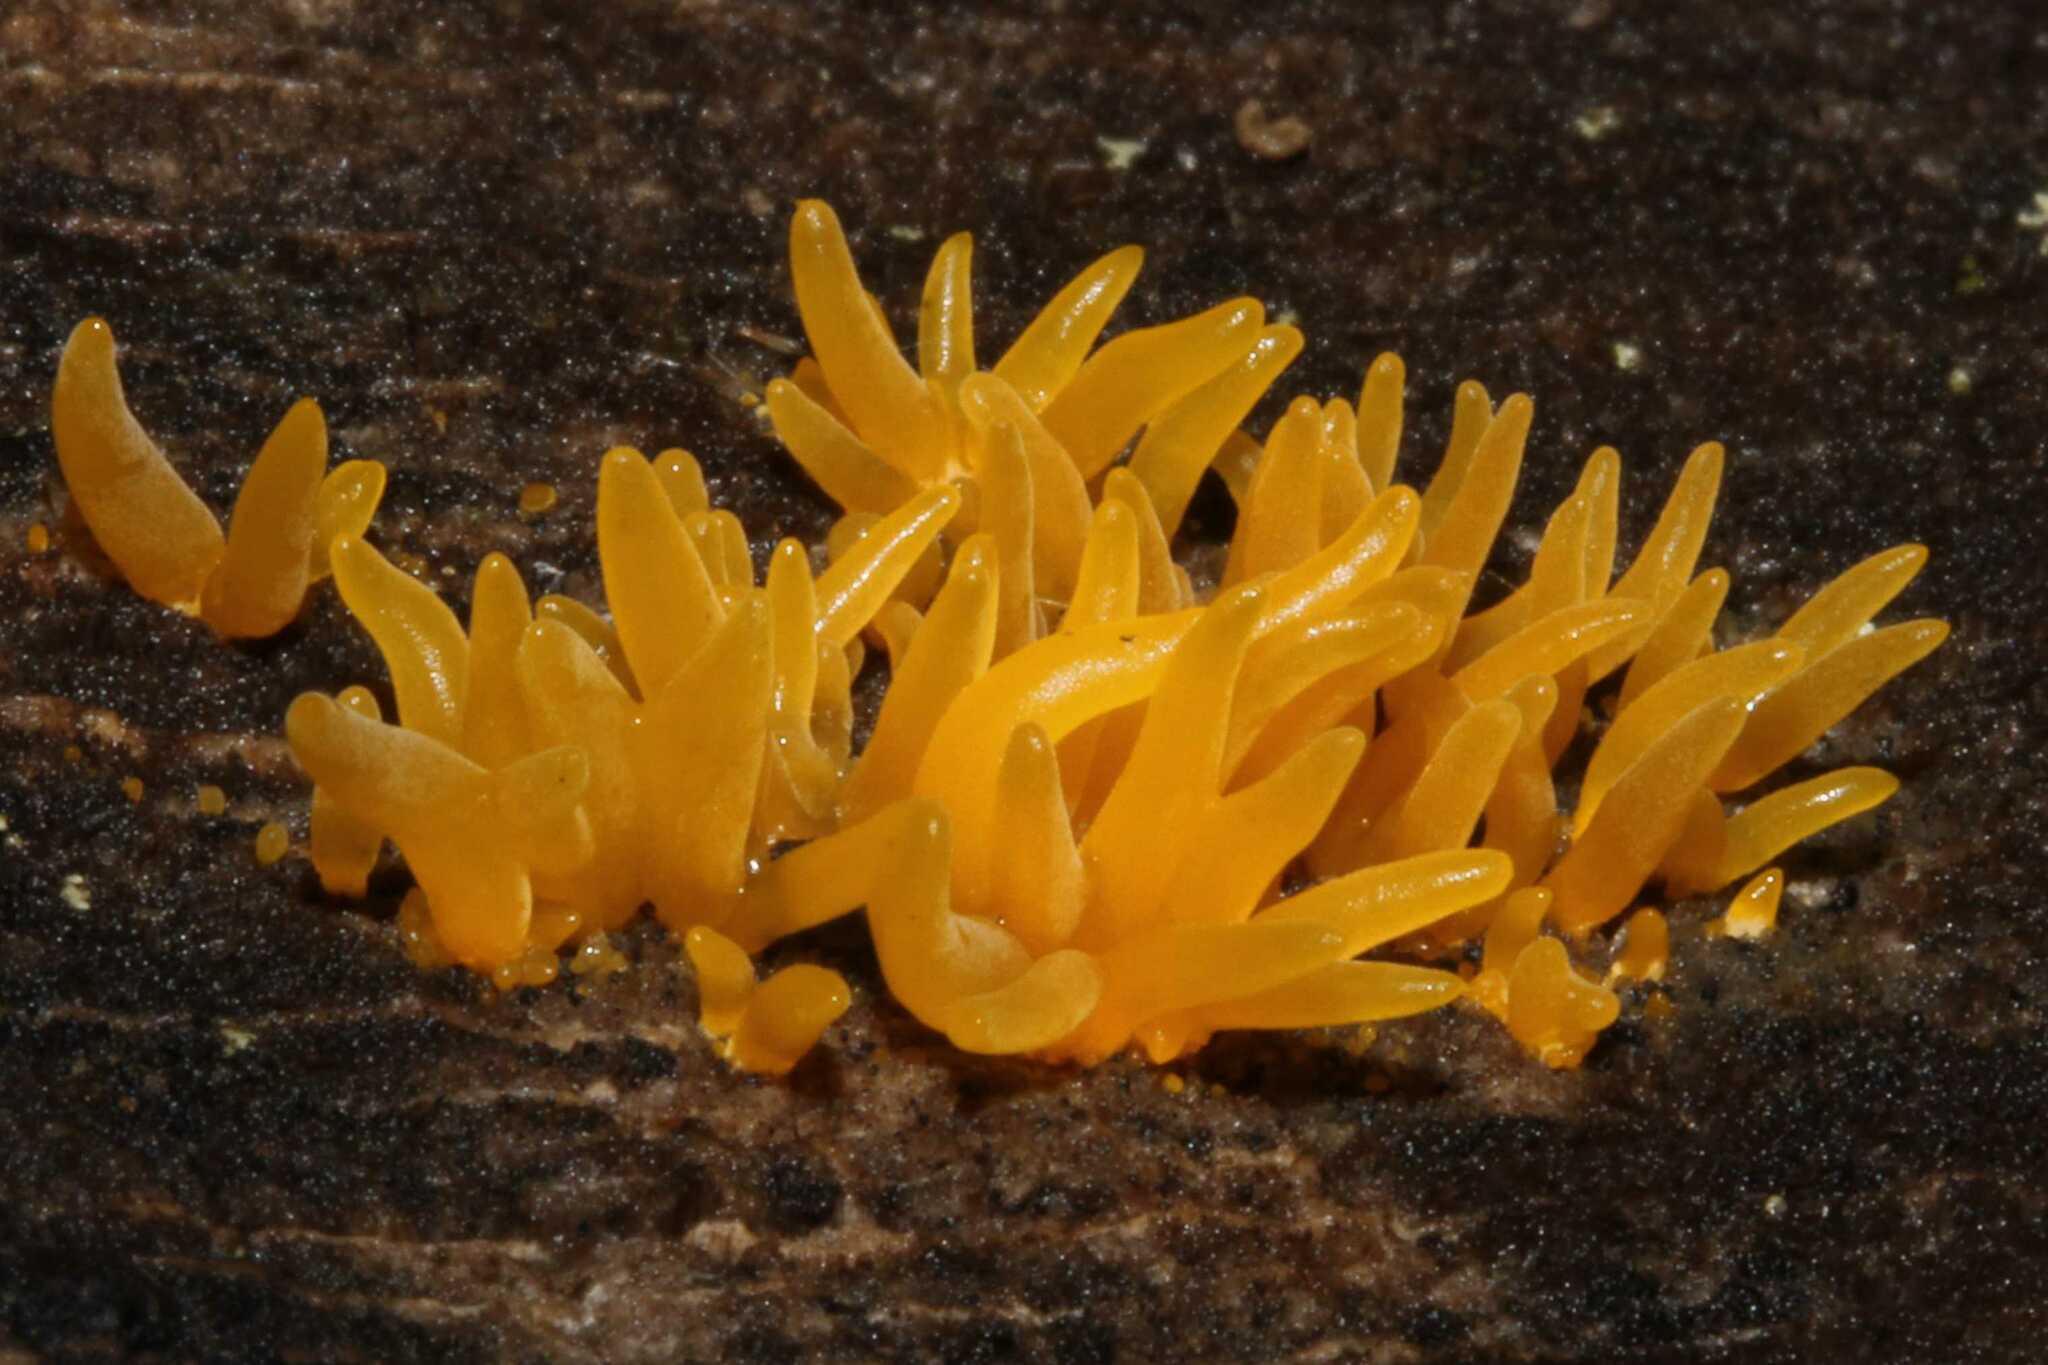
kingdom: Fungi
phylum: Basidiomycota
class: Dacrymycetes
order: Dacrymycetales
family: Dacrymycetaceae
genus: Calocera
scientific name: Calocera cornea
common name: Small stagshorn
